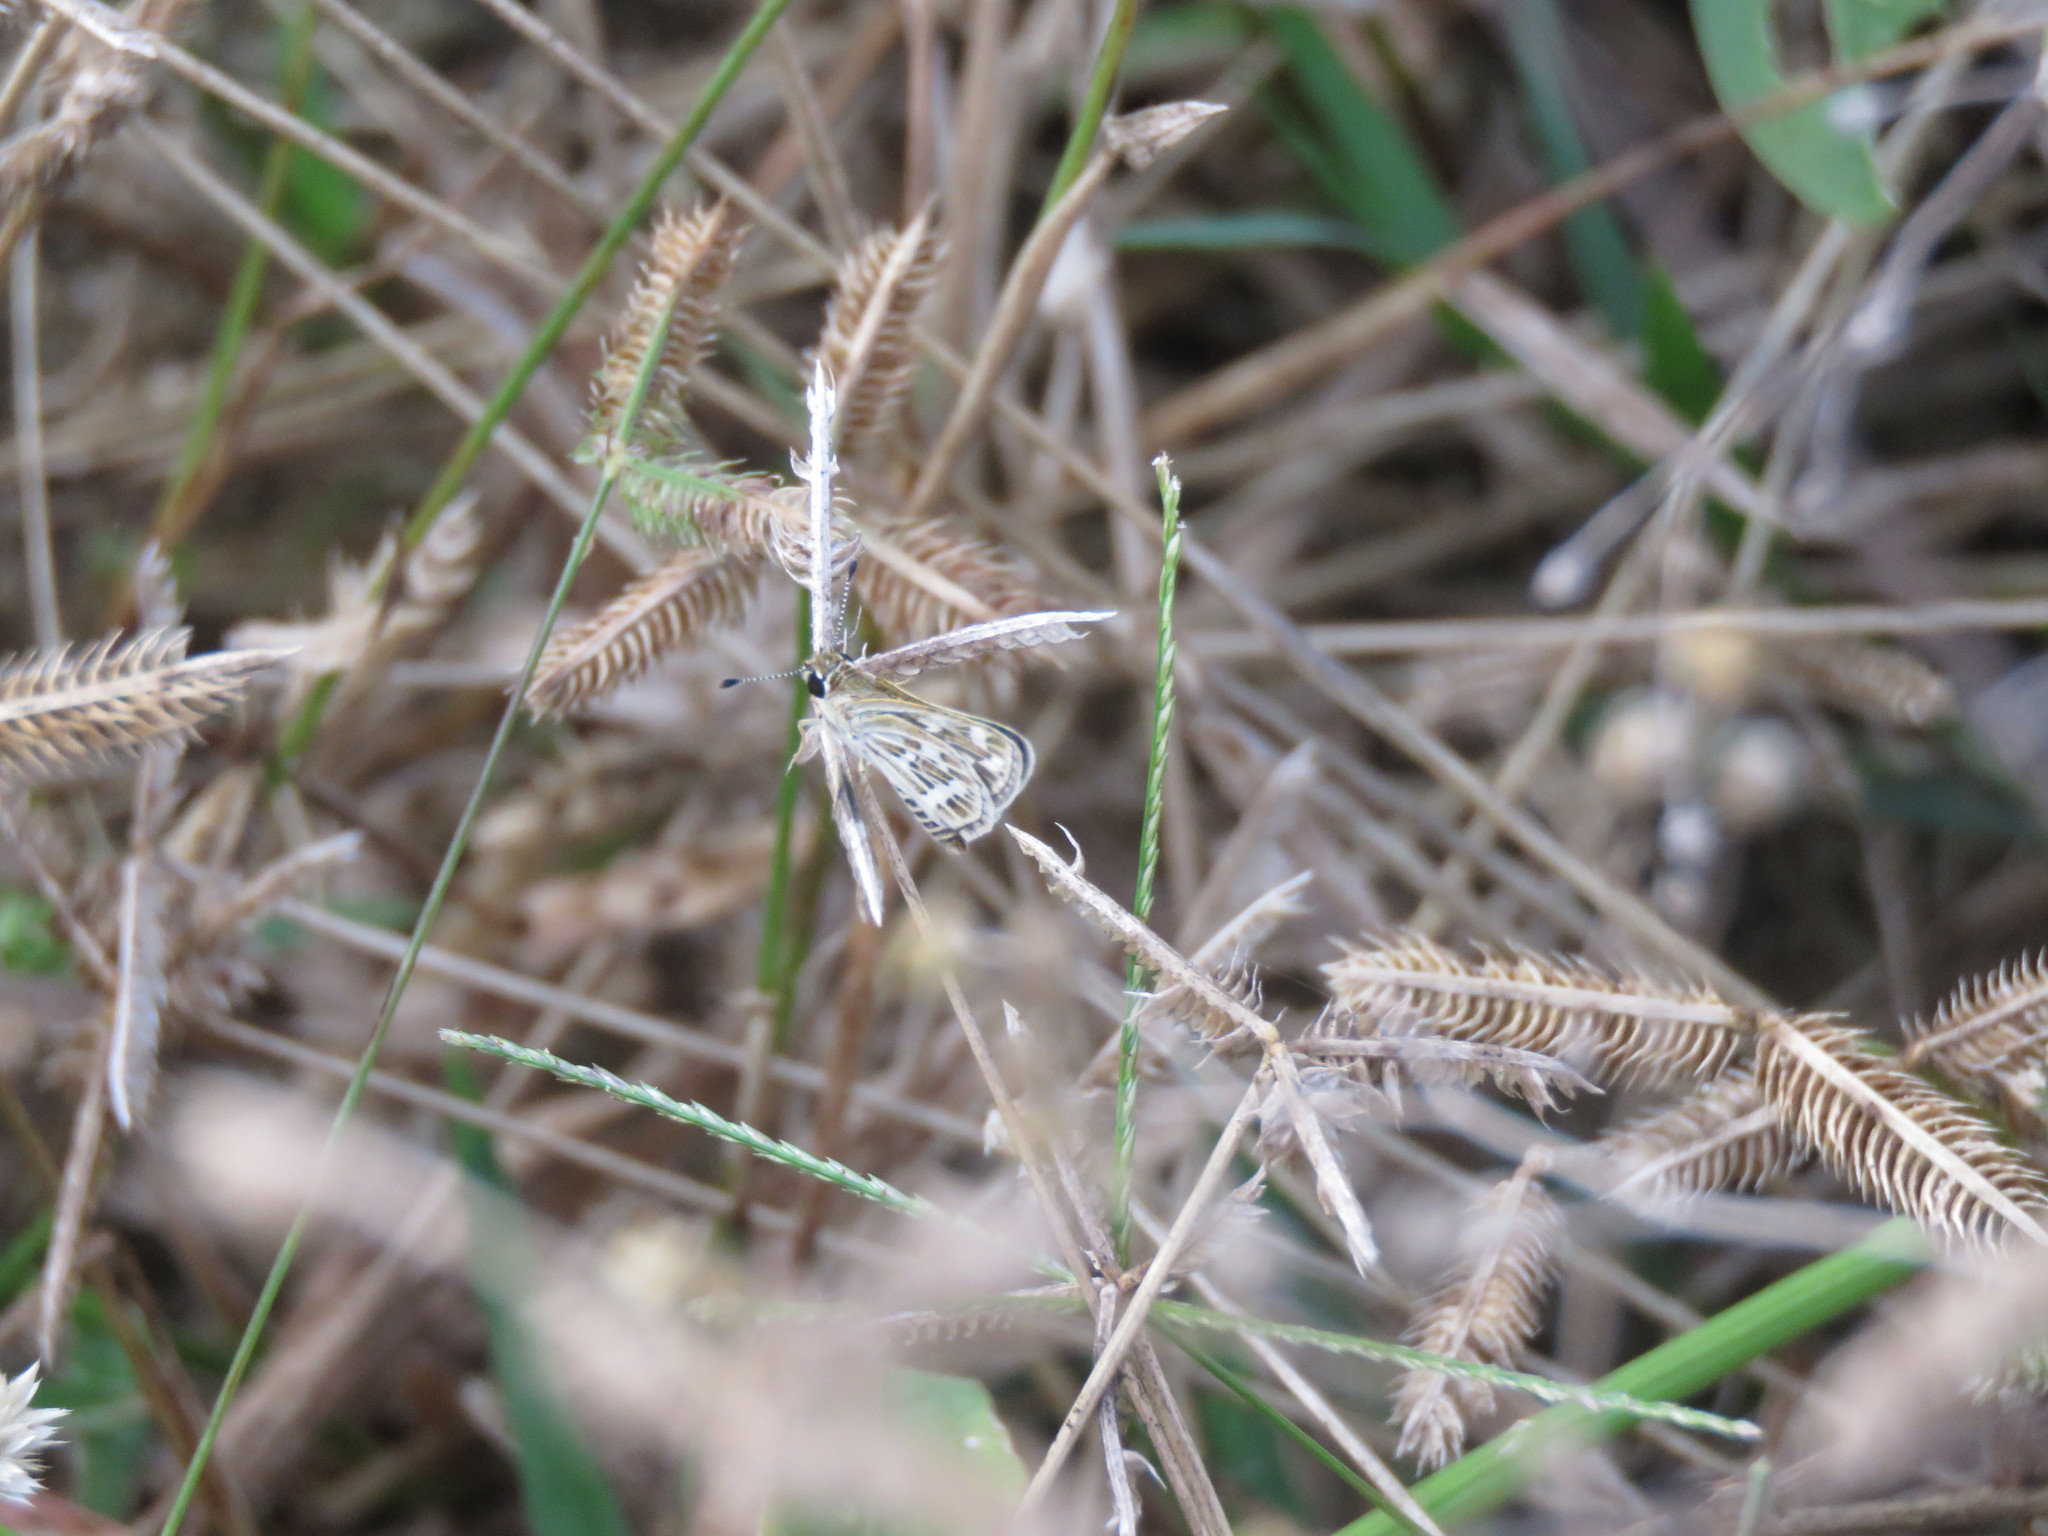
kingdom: Animalia
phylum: Arthropoda
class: Insecta
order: Lepidoptera
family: Hesperiidae
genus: Taractrocera
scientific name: Taractrocera maevius
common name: Common grass-dart
